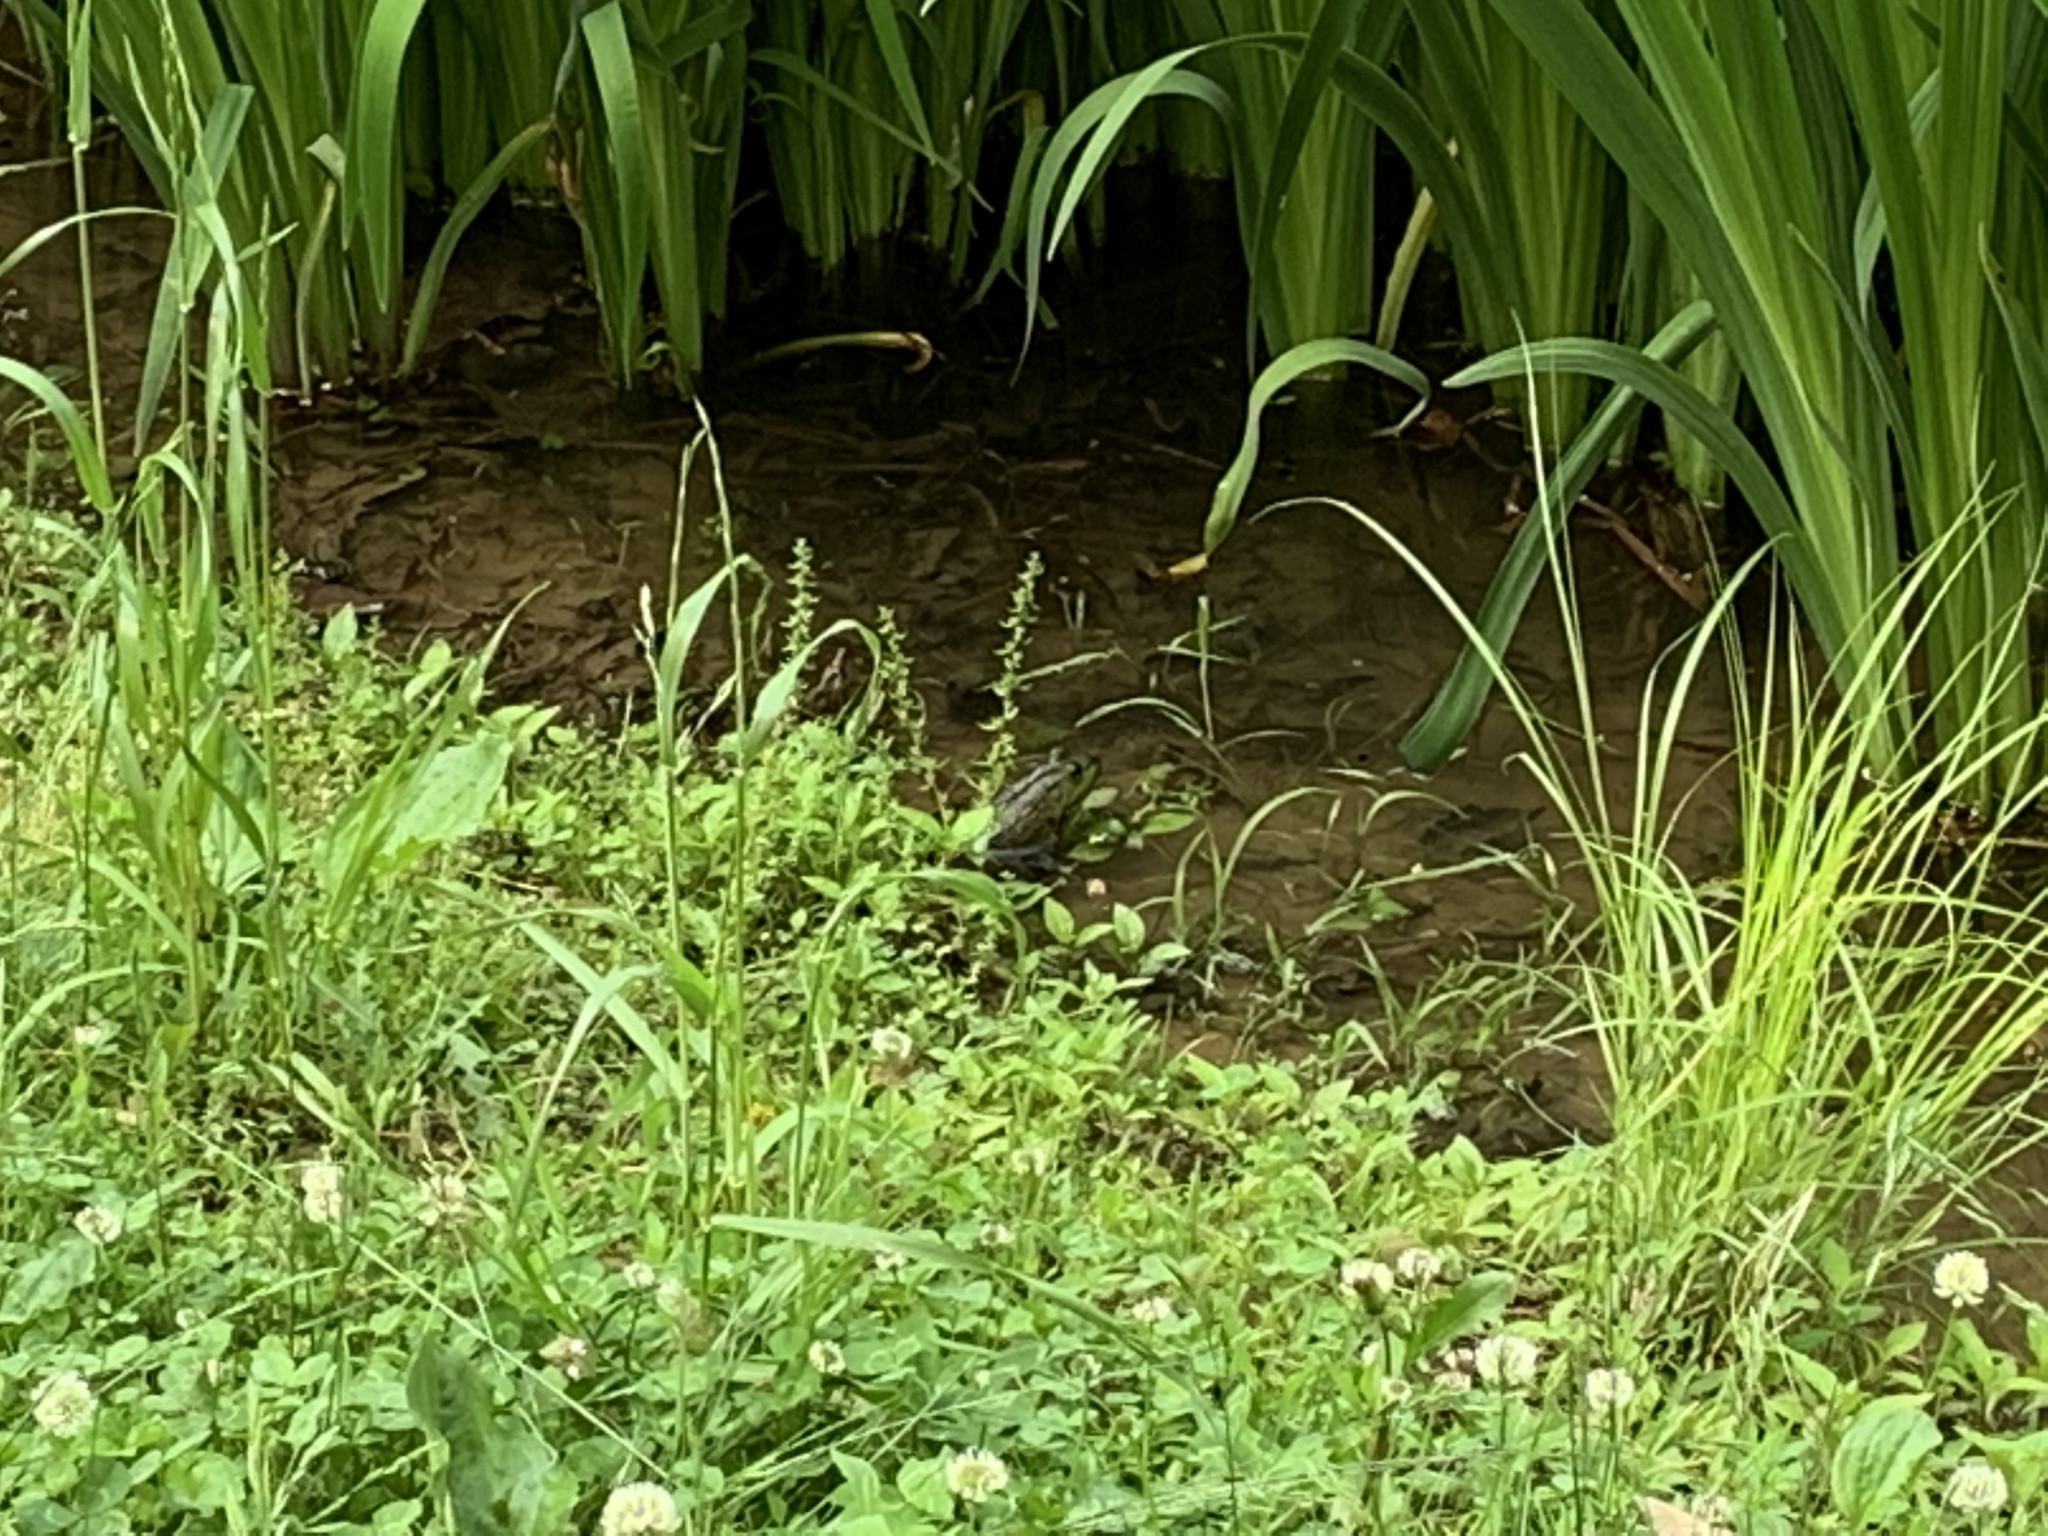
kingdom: Animalia
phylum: Chordata
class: Amphibia
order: Anura
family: Ranidae
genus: Lithobates
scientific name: Lithobates catesbeianus
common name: American bullfrog
